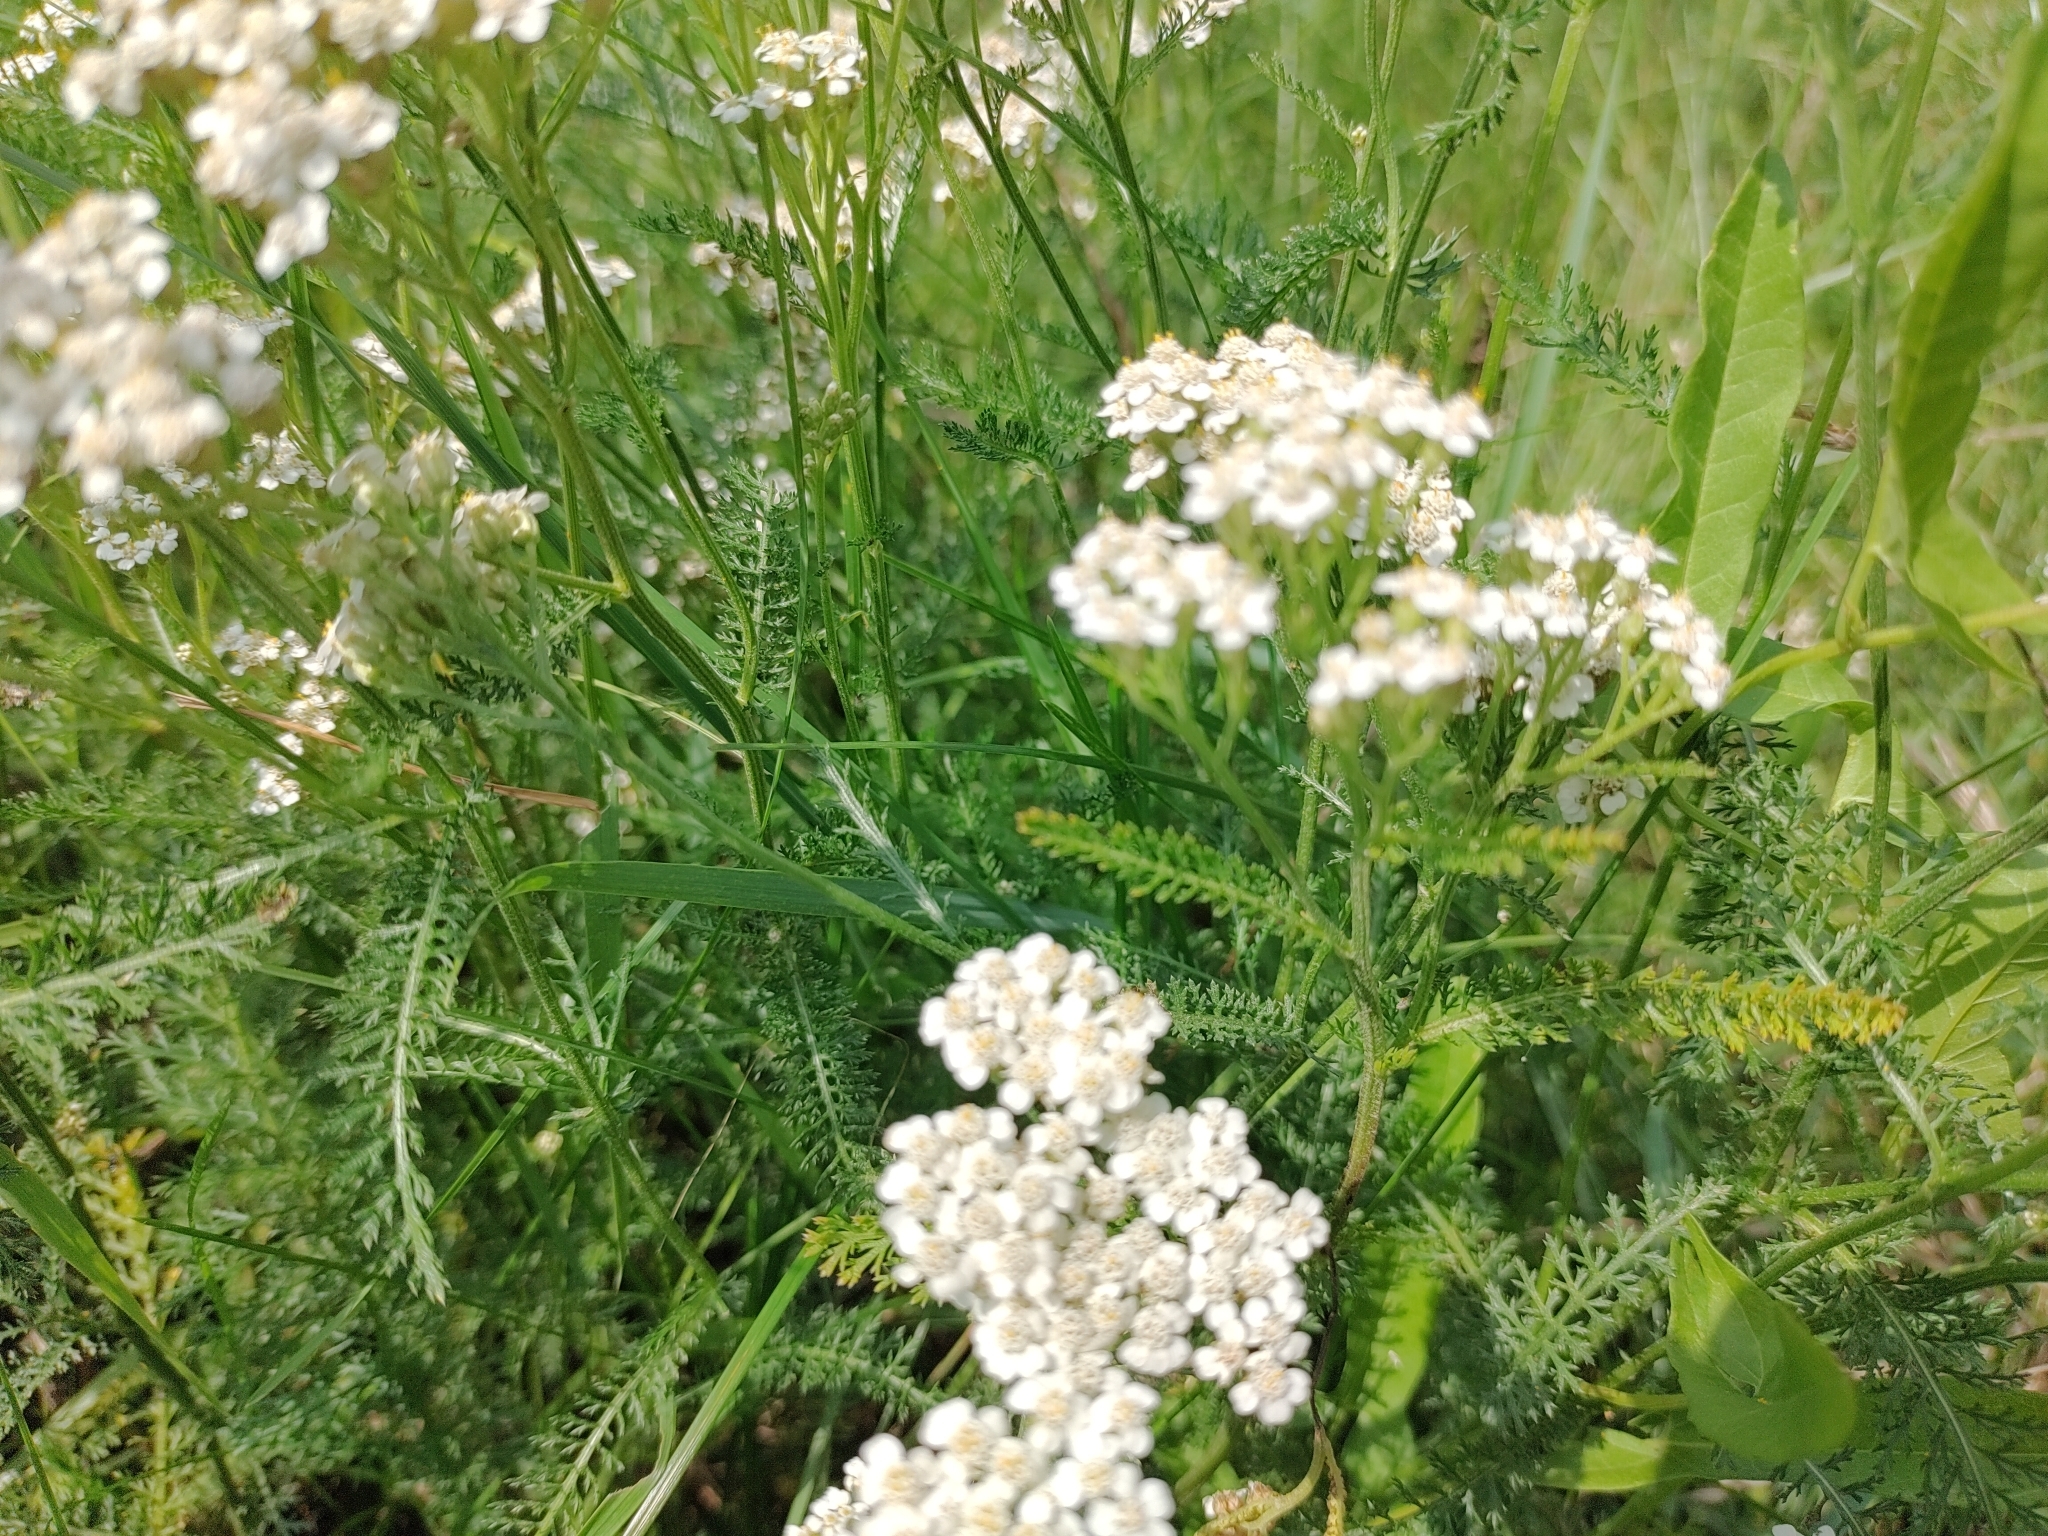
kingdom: Plantae
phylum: Tracheophyta
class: Magnoliopsida
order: Asterales
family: Asteraceae
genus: Achillea
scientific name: Achillea millefolium
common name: Yarrow
